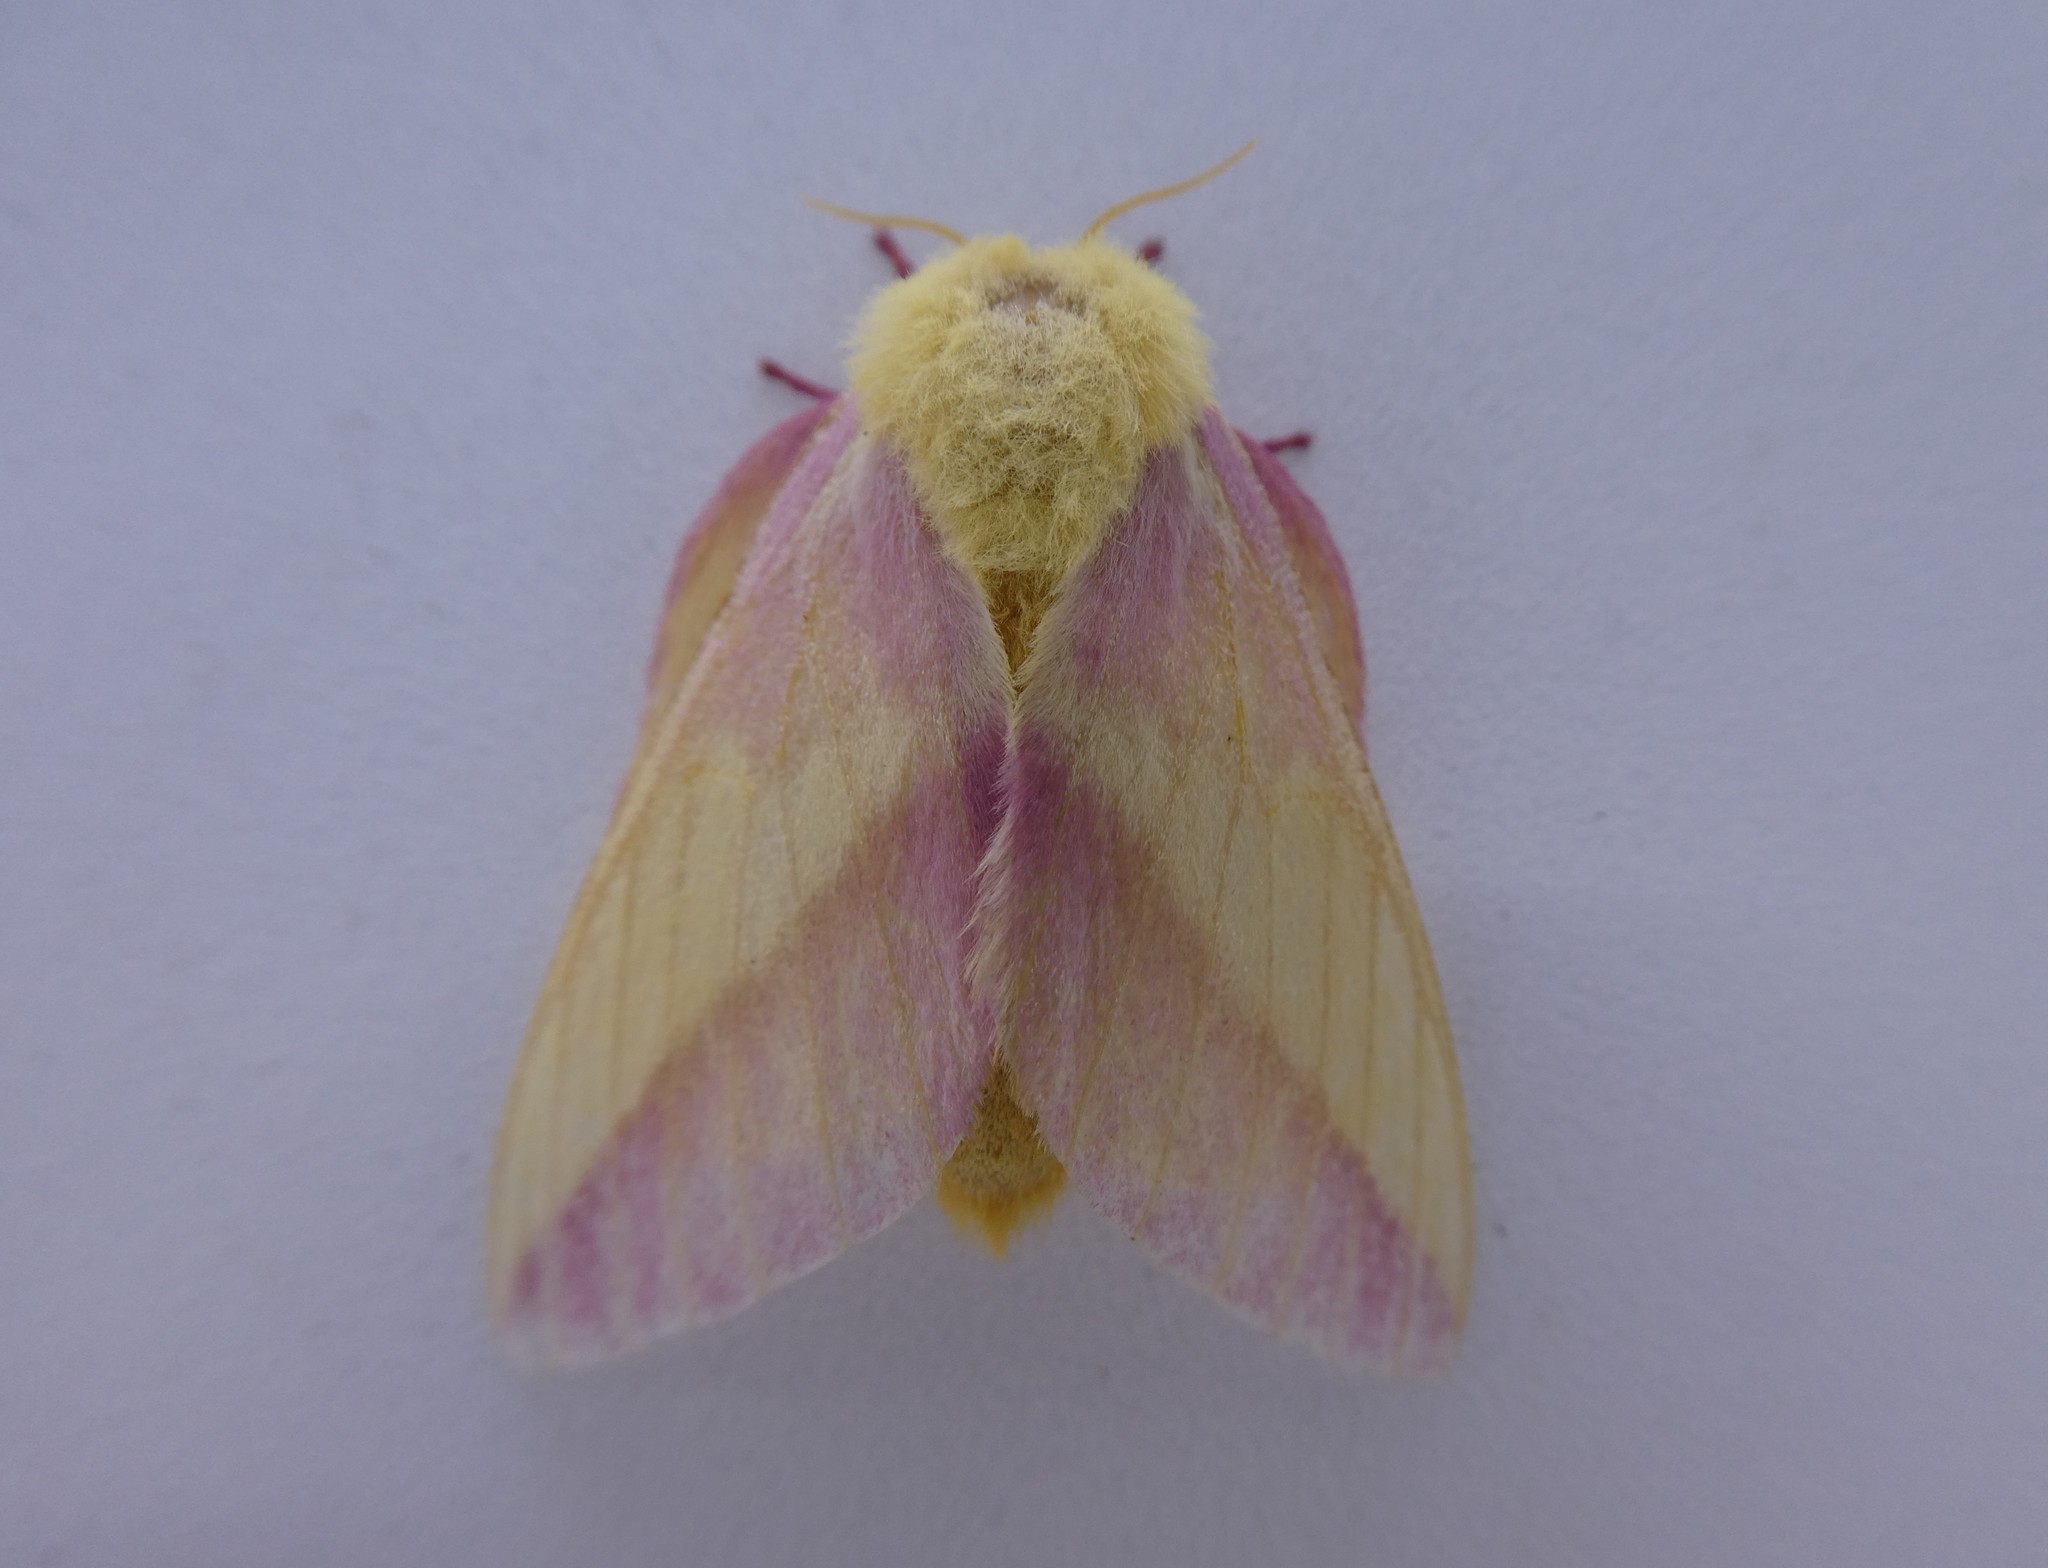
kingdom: Animalia
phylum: Arthropoda
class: Insecta
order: Lepidoptera
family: Saturniidae
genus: Dryocampa
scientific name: Dryocampa rubicunda
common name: Rosy maple moth
